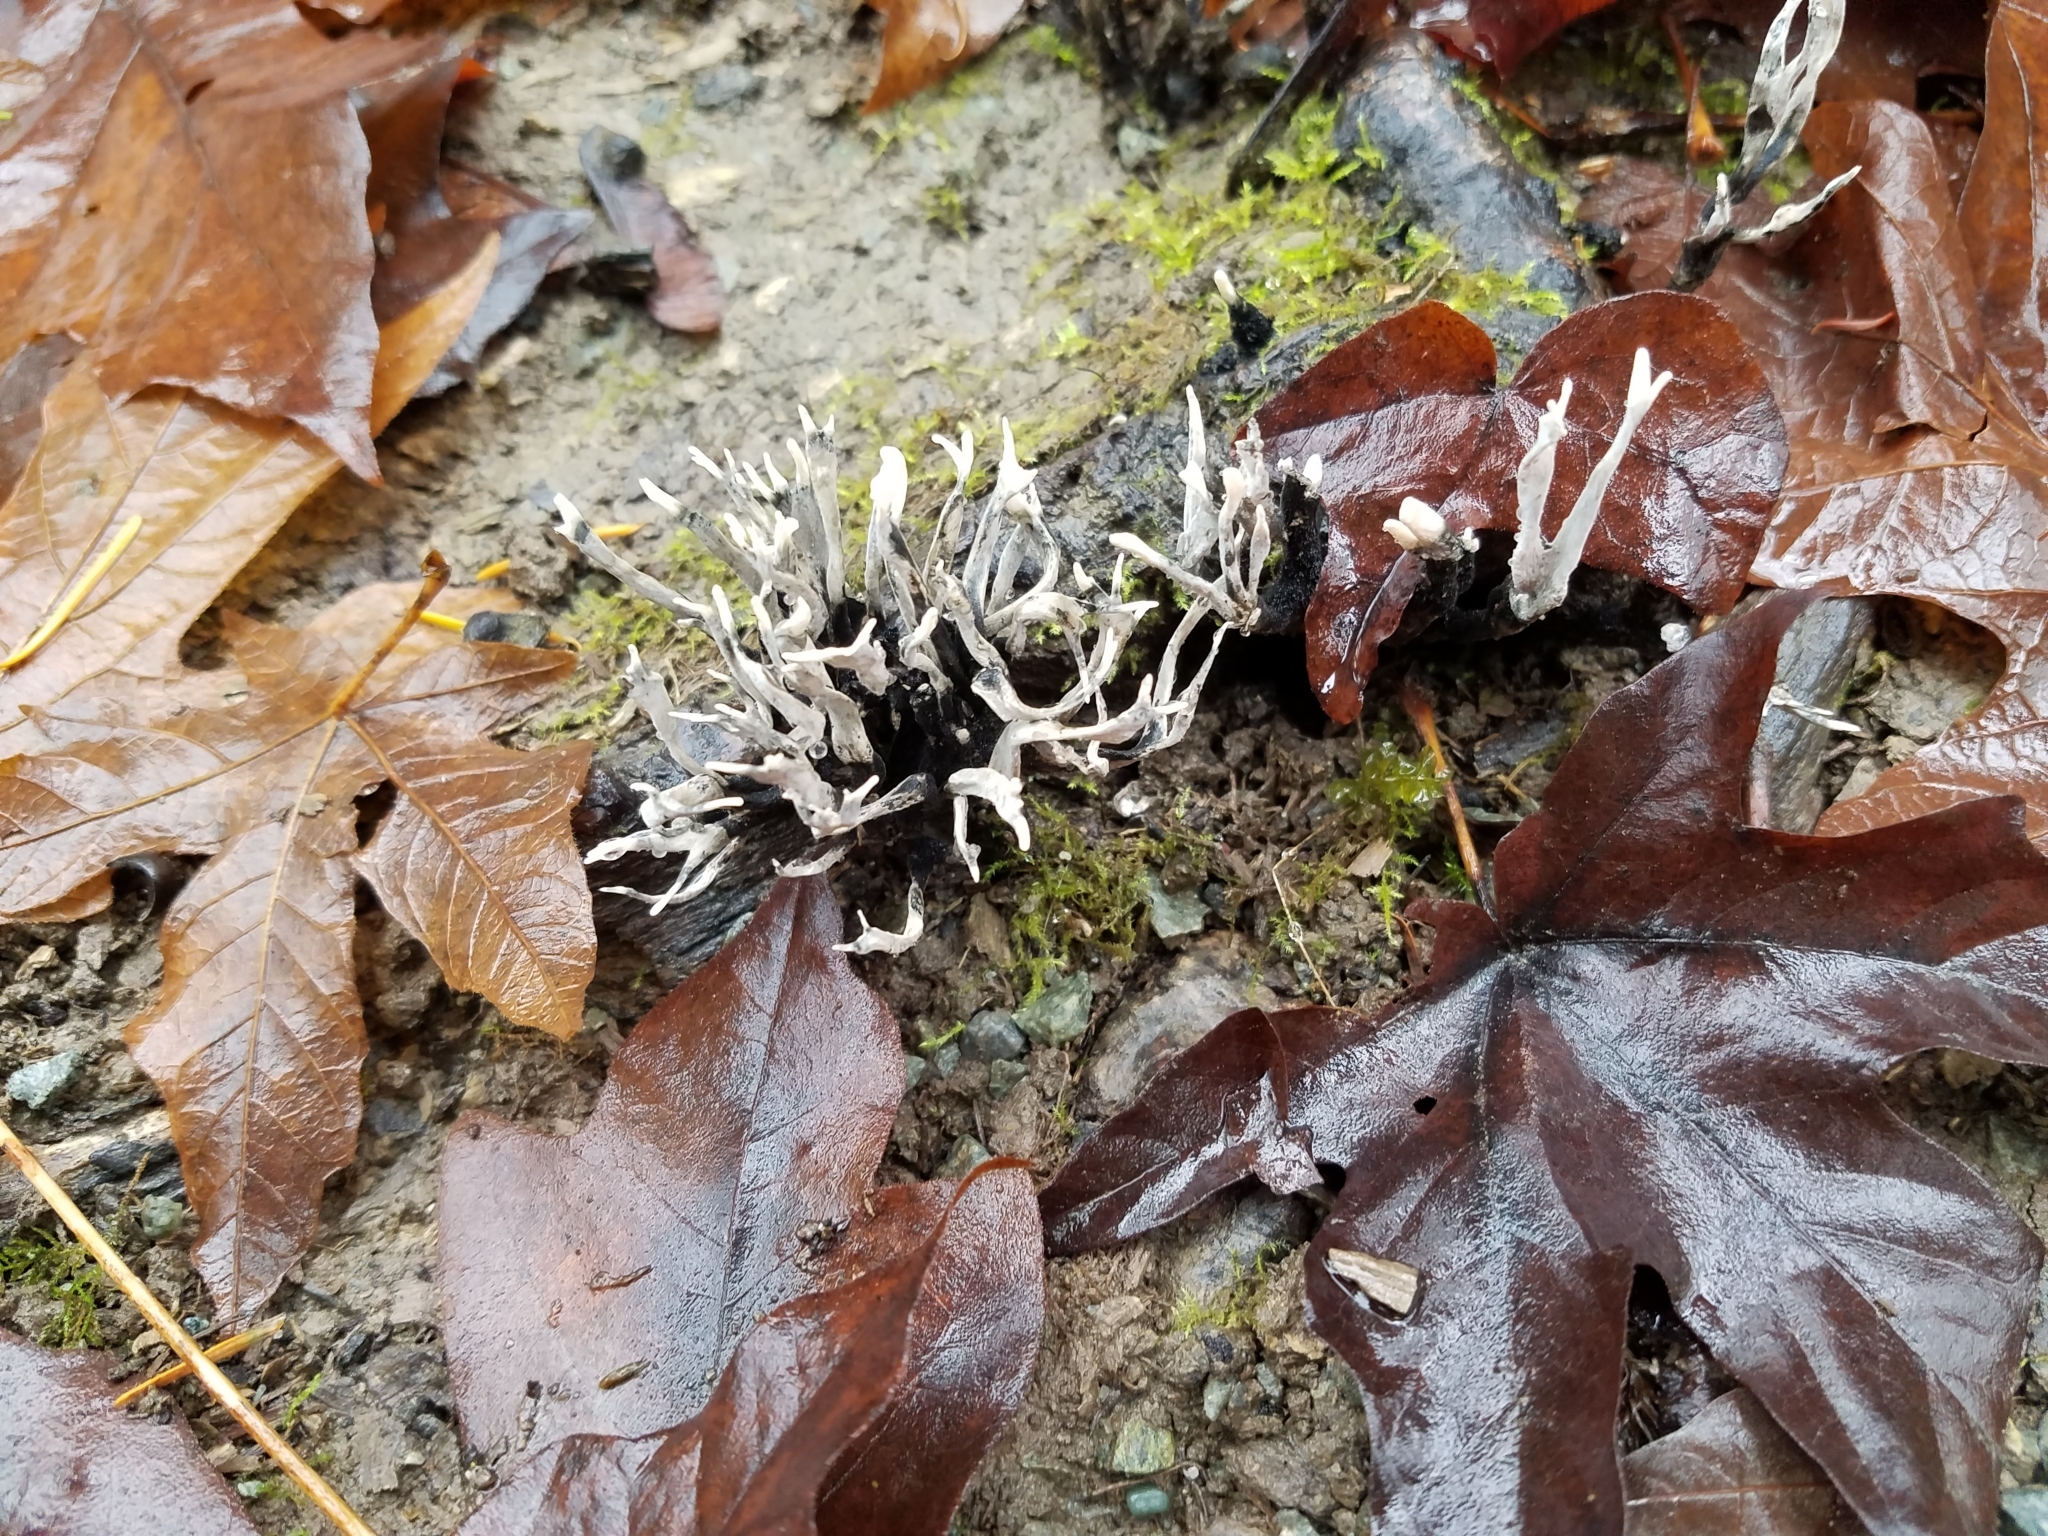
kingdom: Fungi
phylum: Ascomycota
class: Sordariomycetes
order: Xylariales
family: Xylariaceae
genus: Xylaria
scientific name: Xylaria hypoxylon
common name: Candle-snuff fungus
